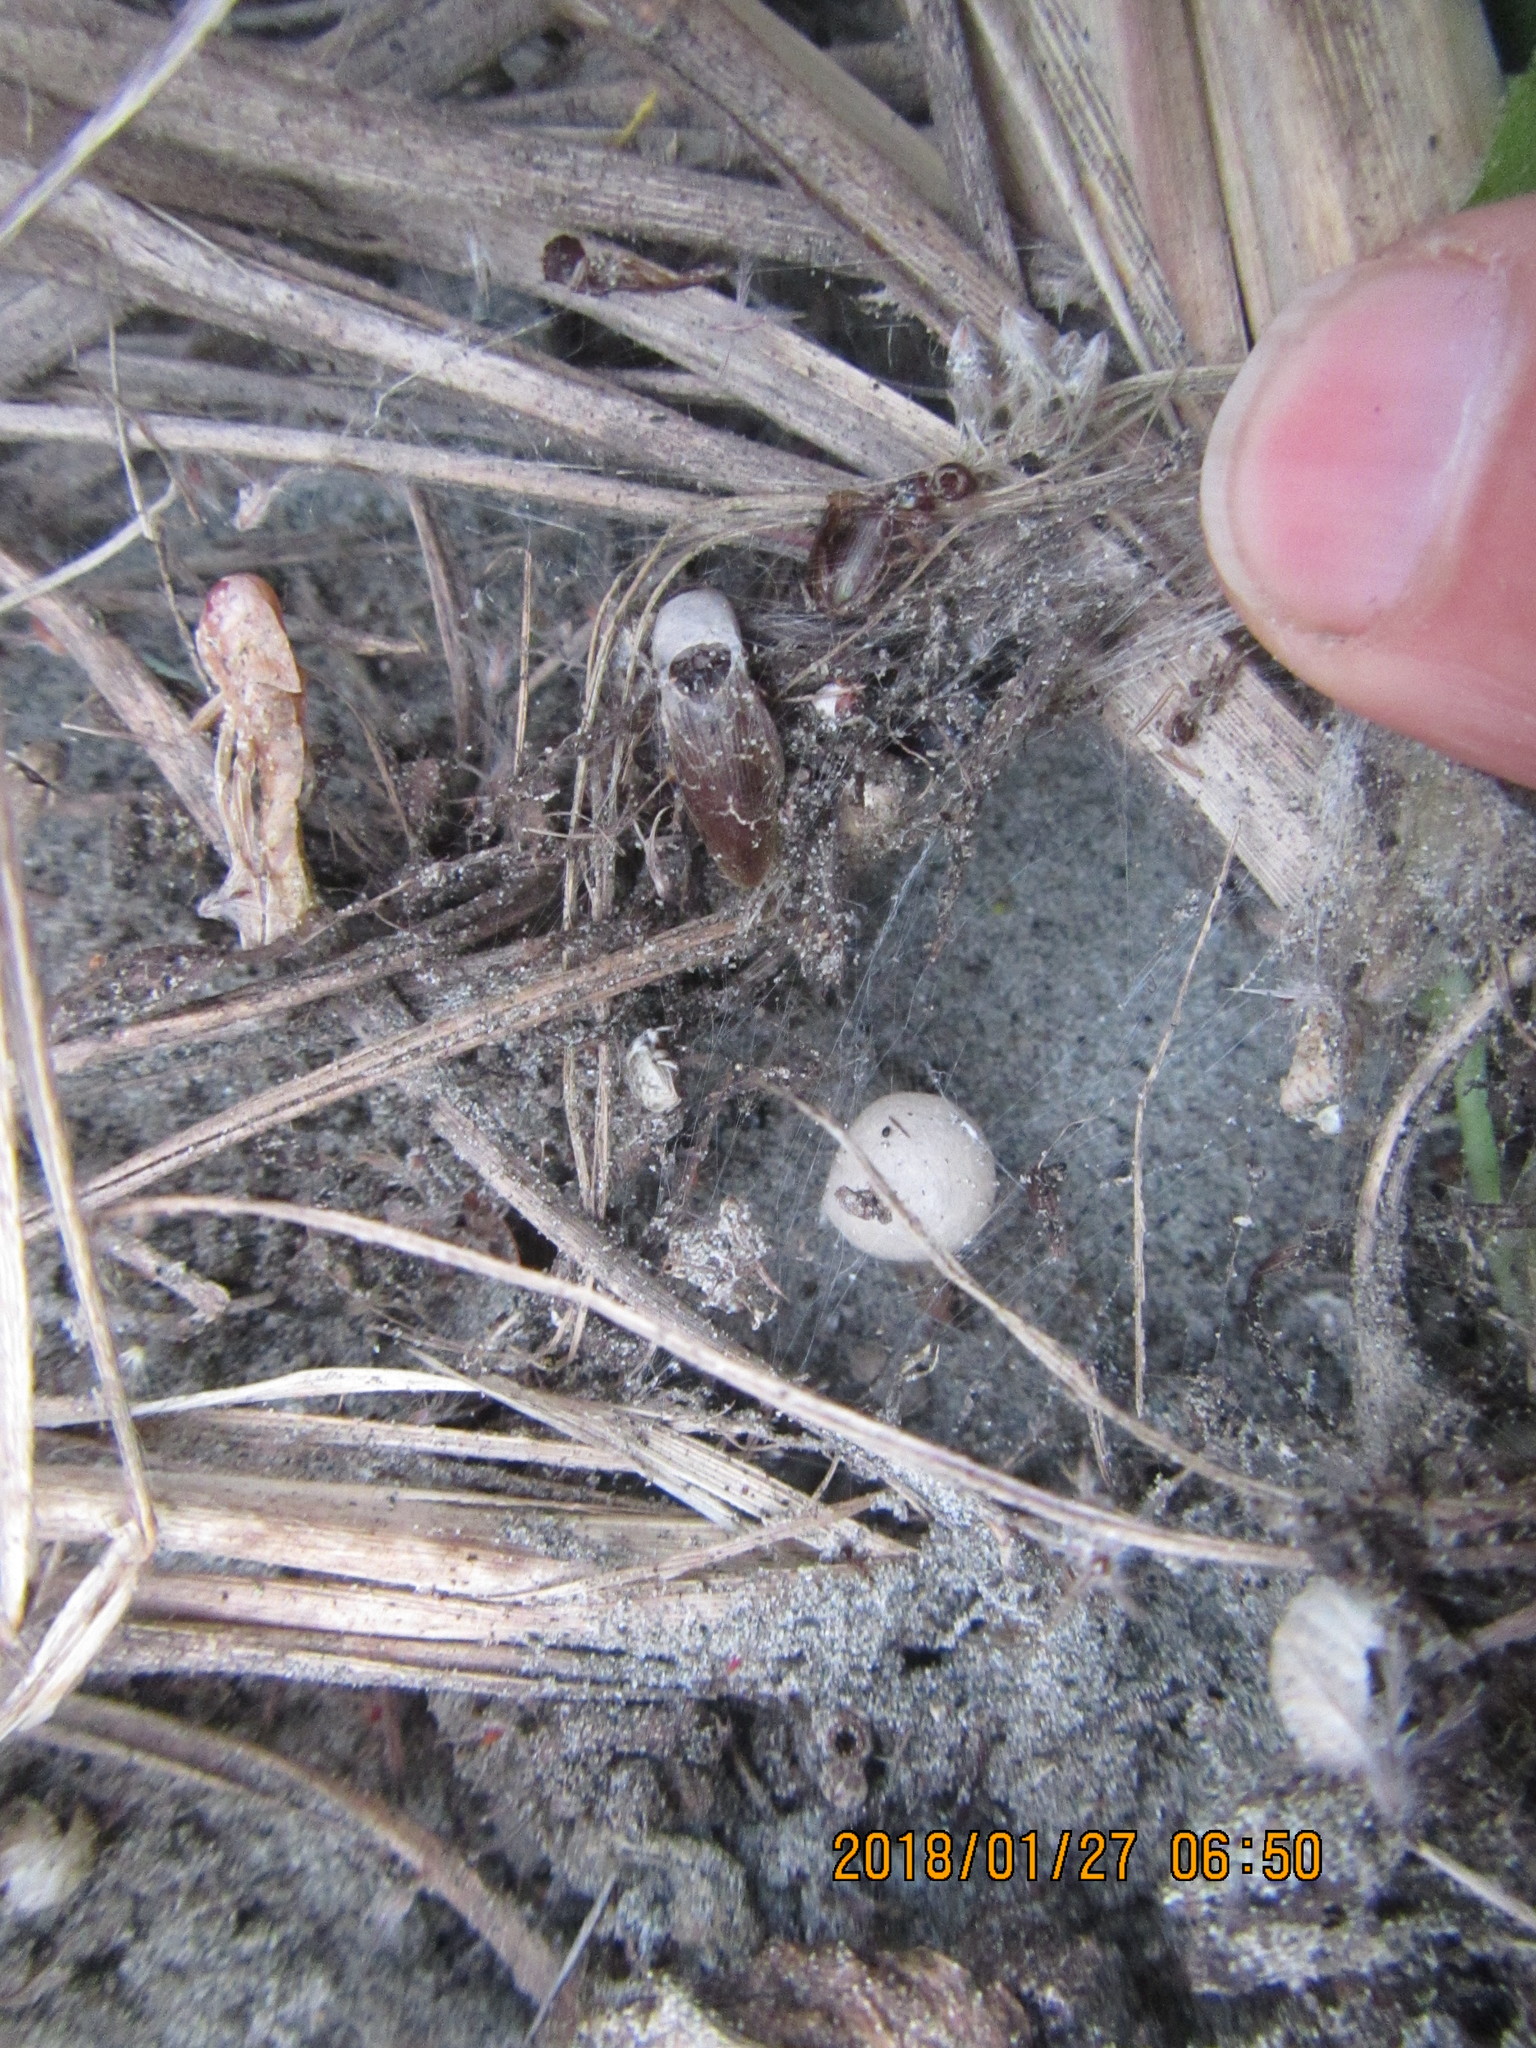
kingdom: Animalia
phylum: Arthropoda
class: Arachnida
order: Araneae
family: Theridiidae
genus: Latrodectus
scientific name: Latrodectus katipo
